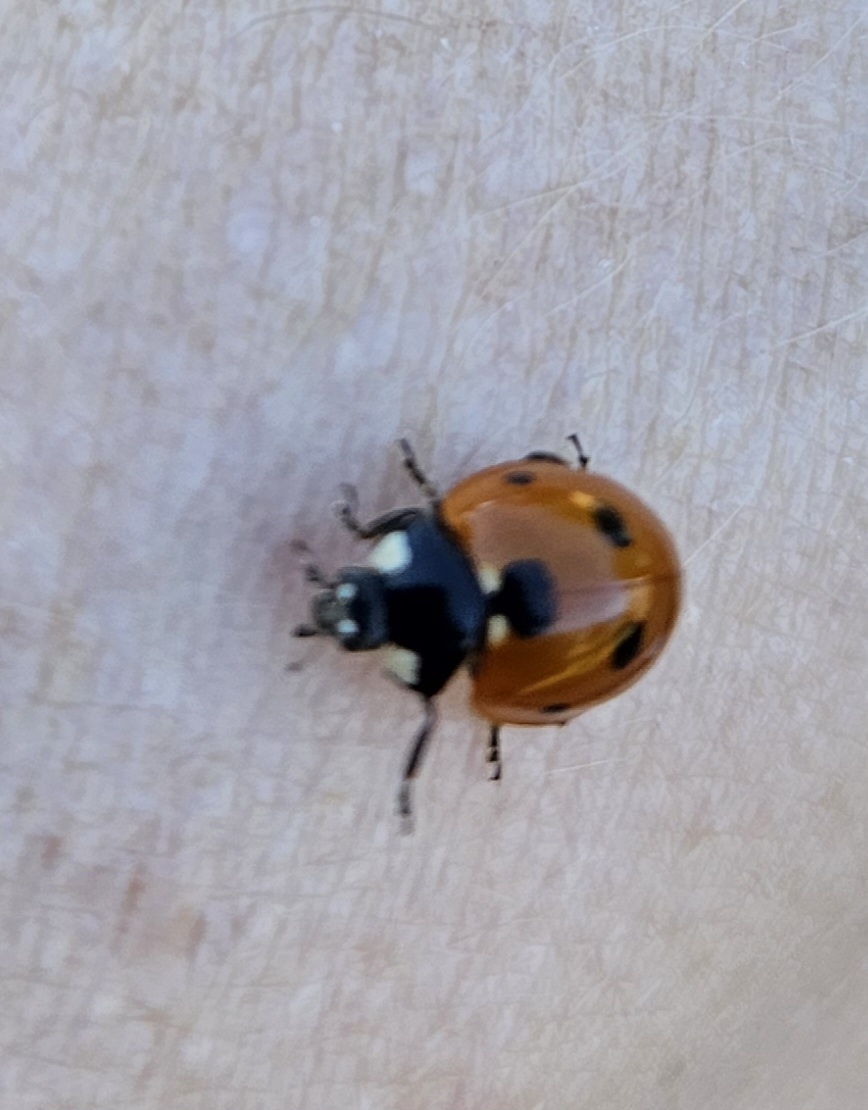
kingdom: Animalia
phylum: Arthropoda
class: Insecta
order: Coleoptera
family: Coccinellidae
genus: Coccinella
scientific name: Coccinella septempunctata
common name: Sevenspotted lady beetle
